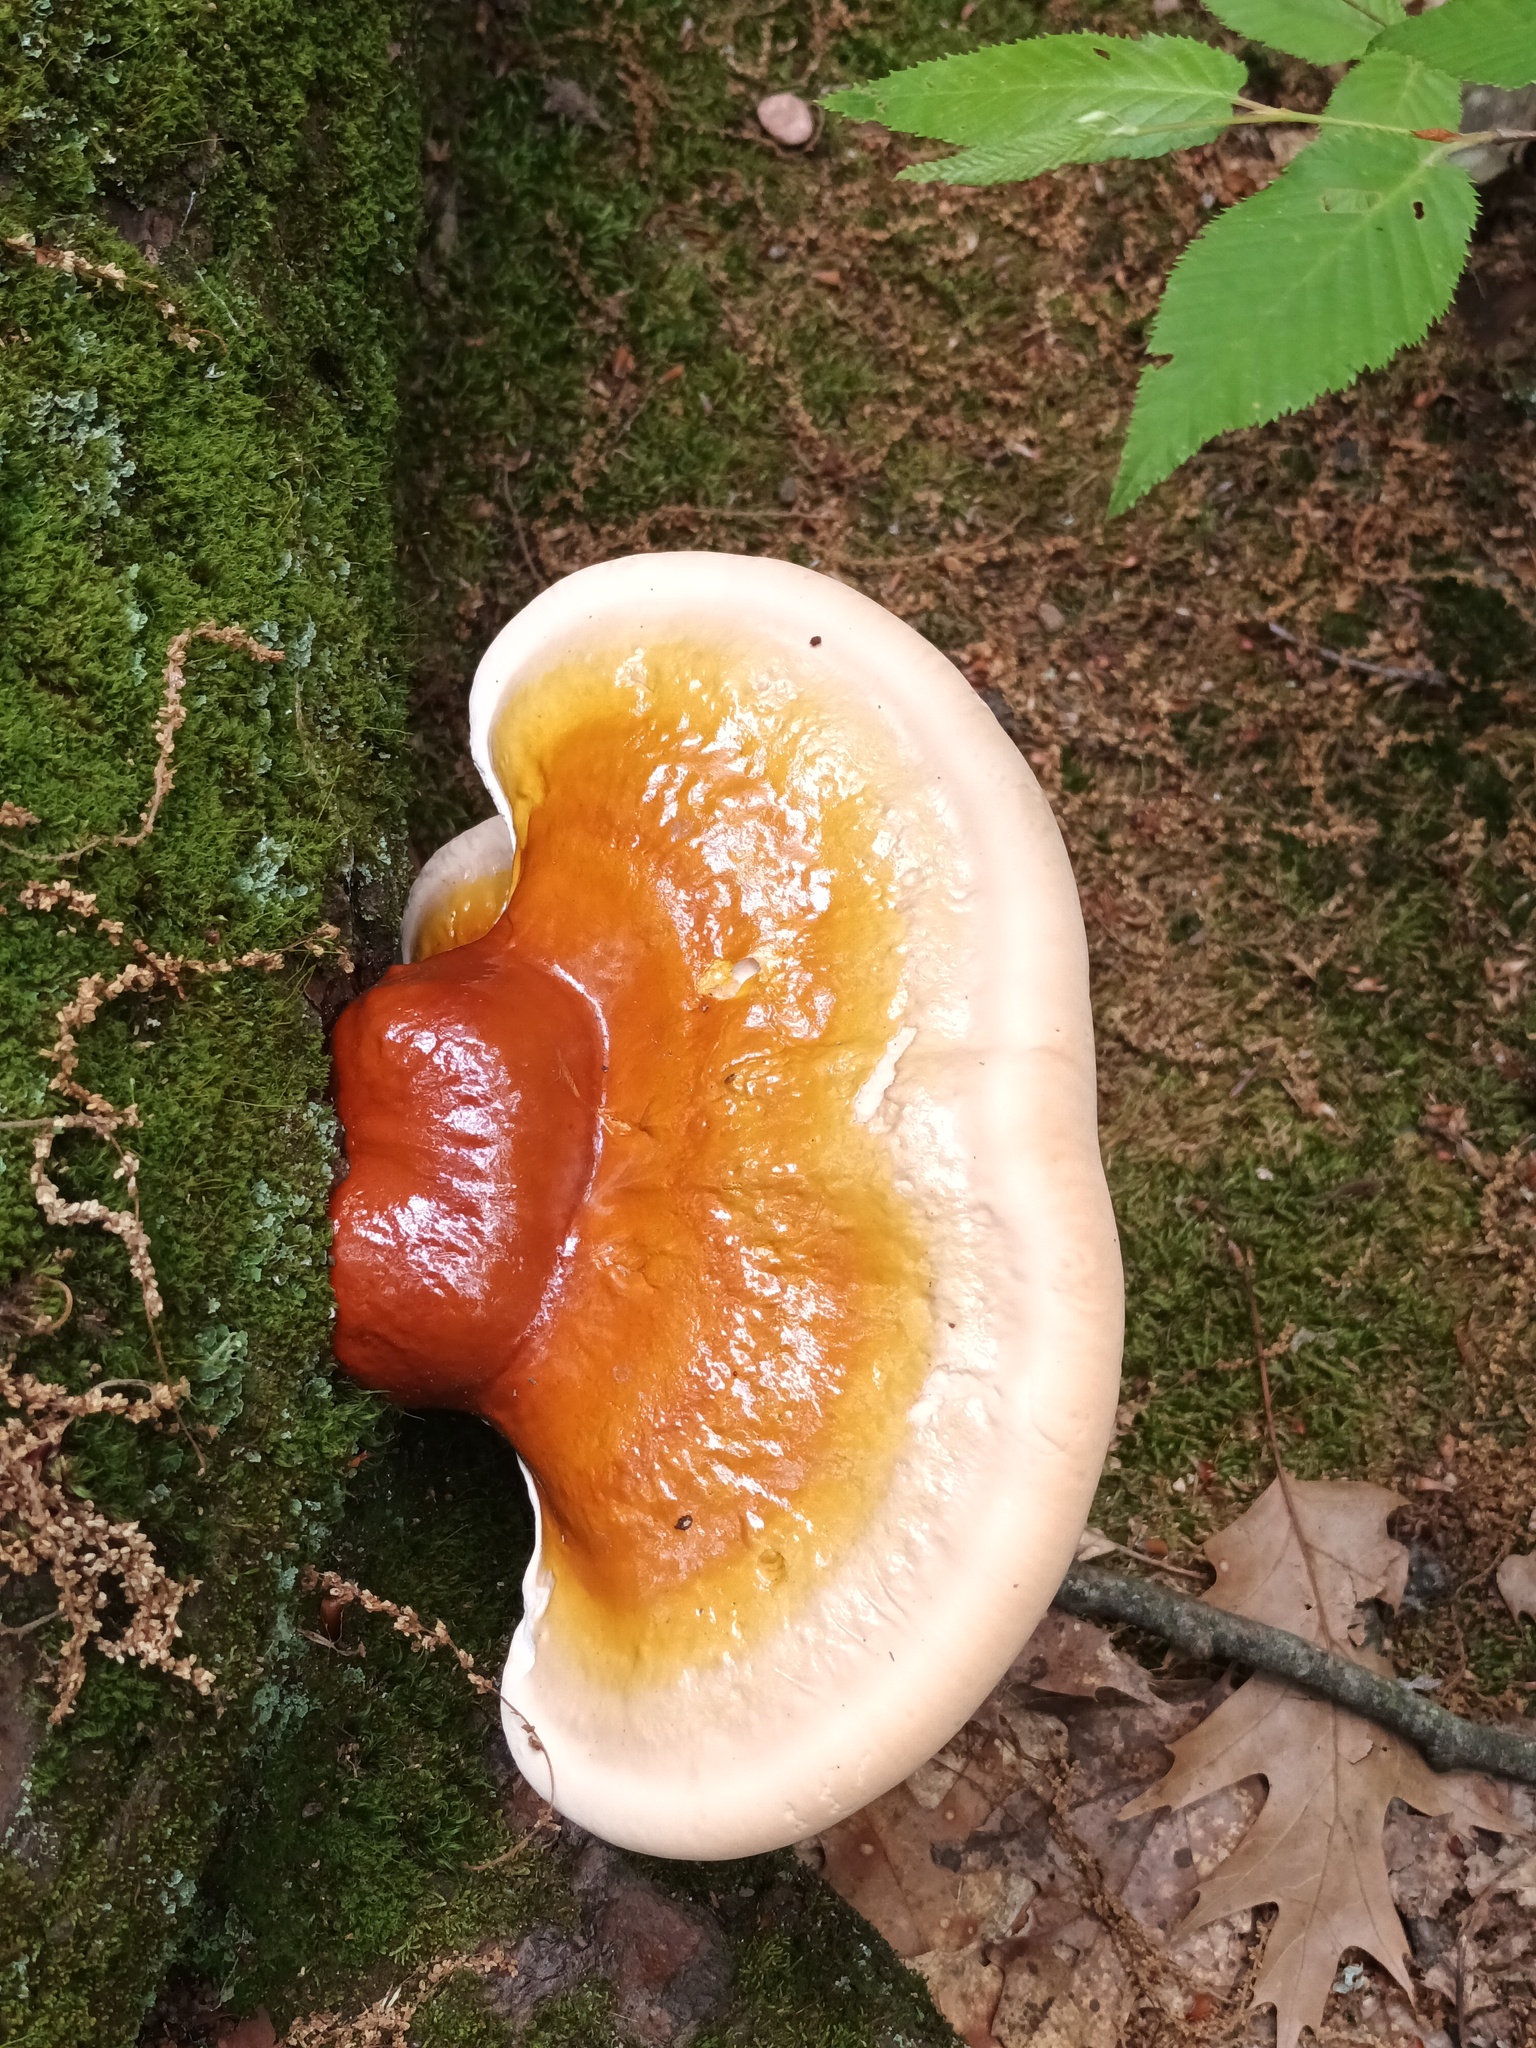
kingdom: Fungi
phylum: Basidiomycota
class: Agaricomycetes
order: Polyporales
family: Polyporaceae
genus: Ganoderma
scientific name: Ganoderma tsugae
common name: Hemlock varnish shelf
